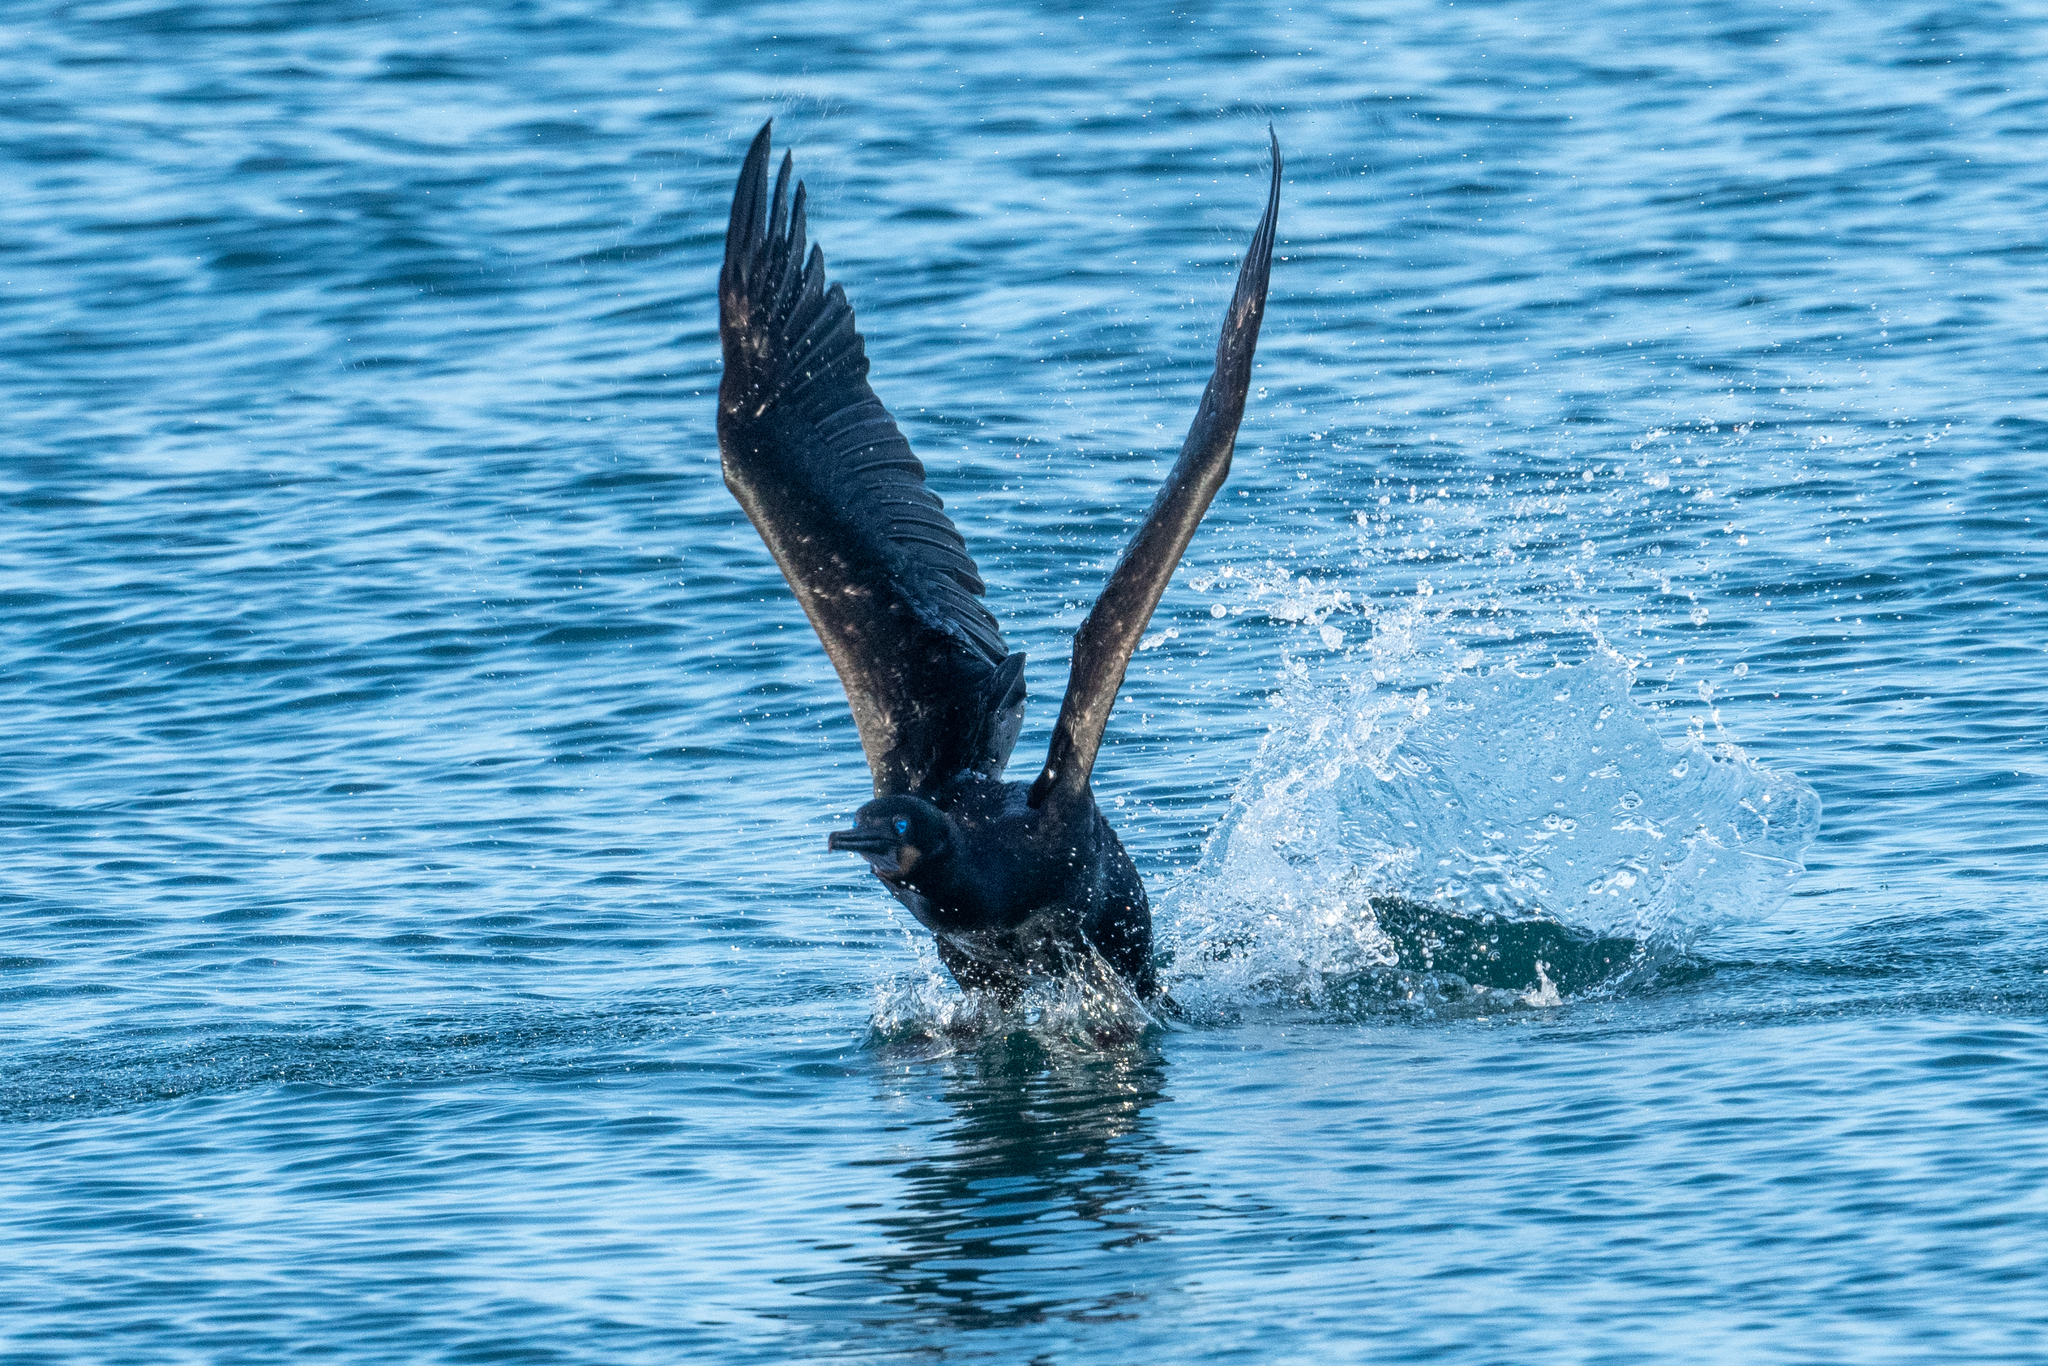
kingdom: Animalia
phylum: Chordata
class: Aves
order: Suliformes
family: Phalacrocoracidae
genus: Urile
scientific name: Urile penicillatus
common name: Brandt's cormorant
